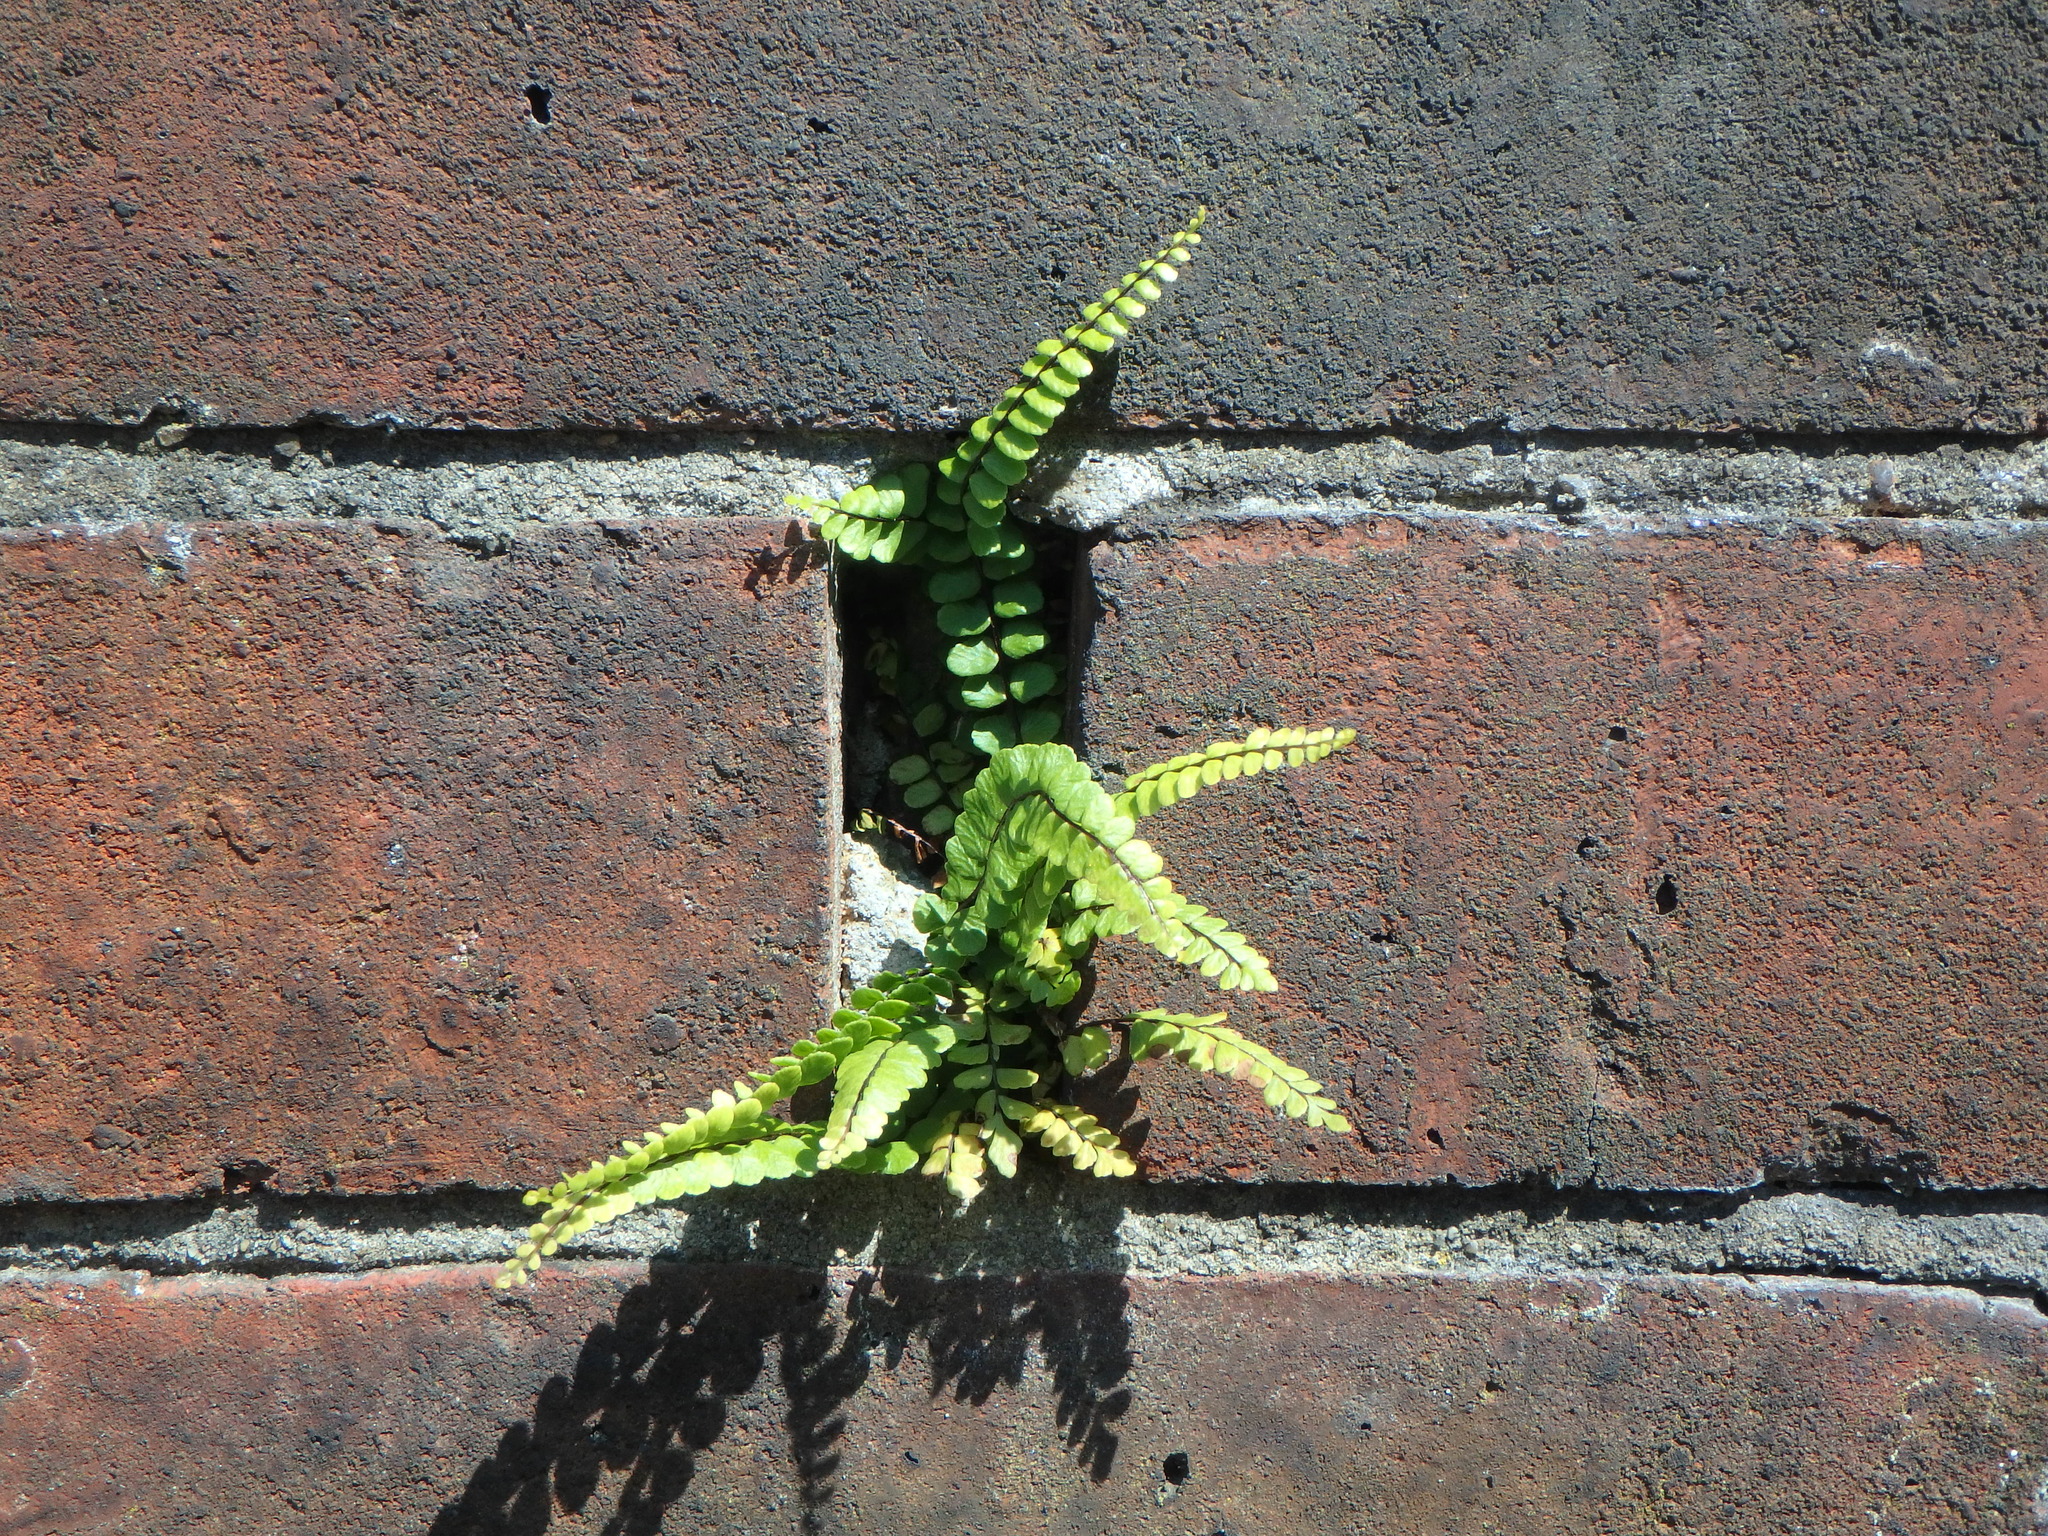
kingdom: Plantae
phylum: Tracheophyta
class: Polypodiopsida
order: Polypodiales
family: Aspleniaceae
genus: Asplenium
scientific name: Asplenium trichomanes
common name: Maidenhair spleenwort
